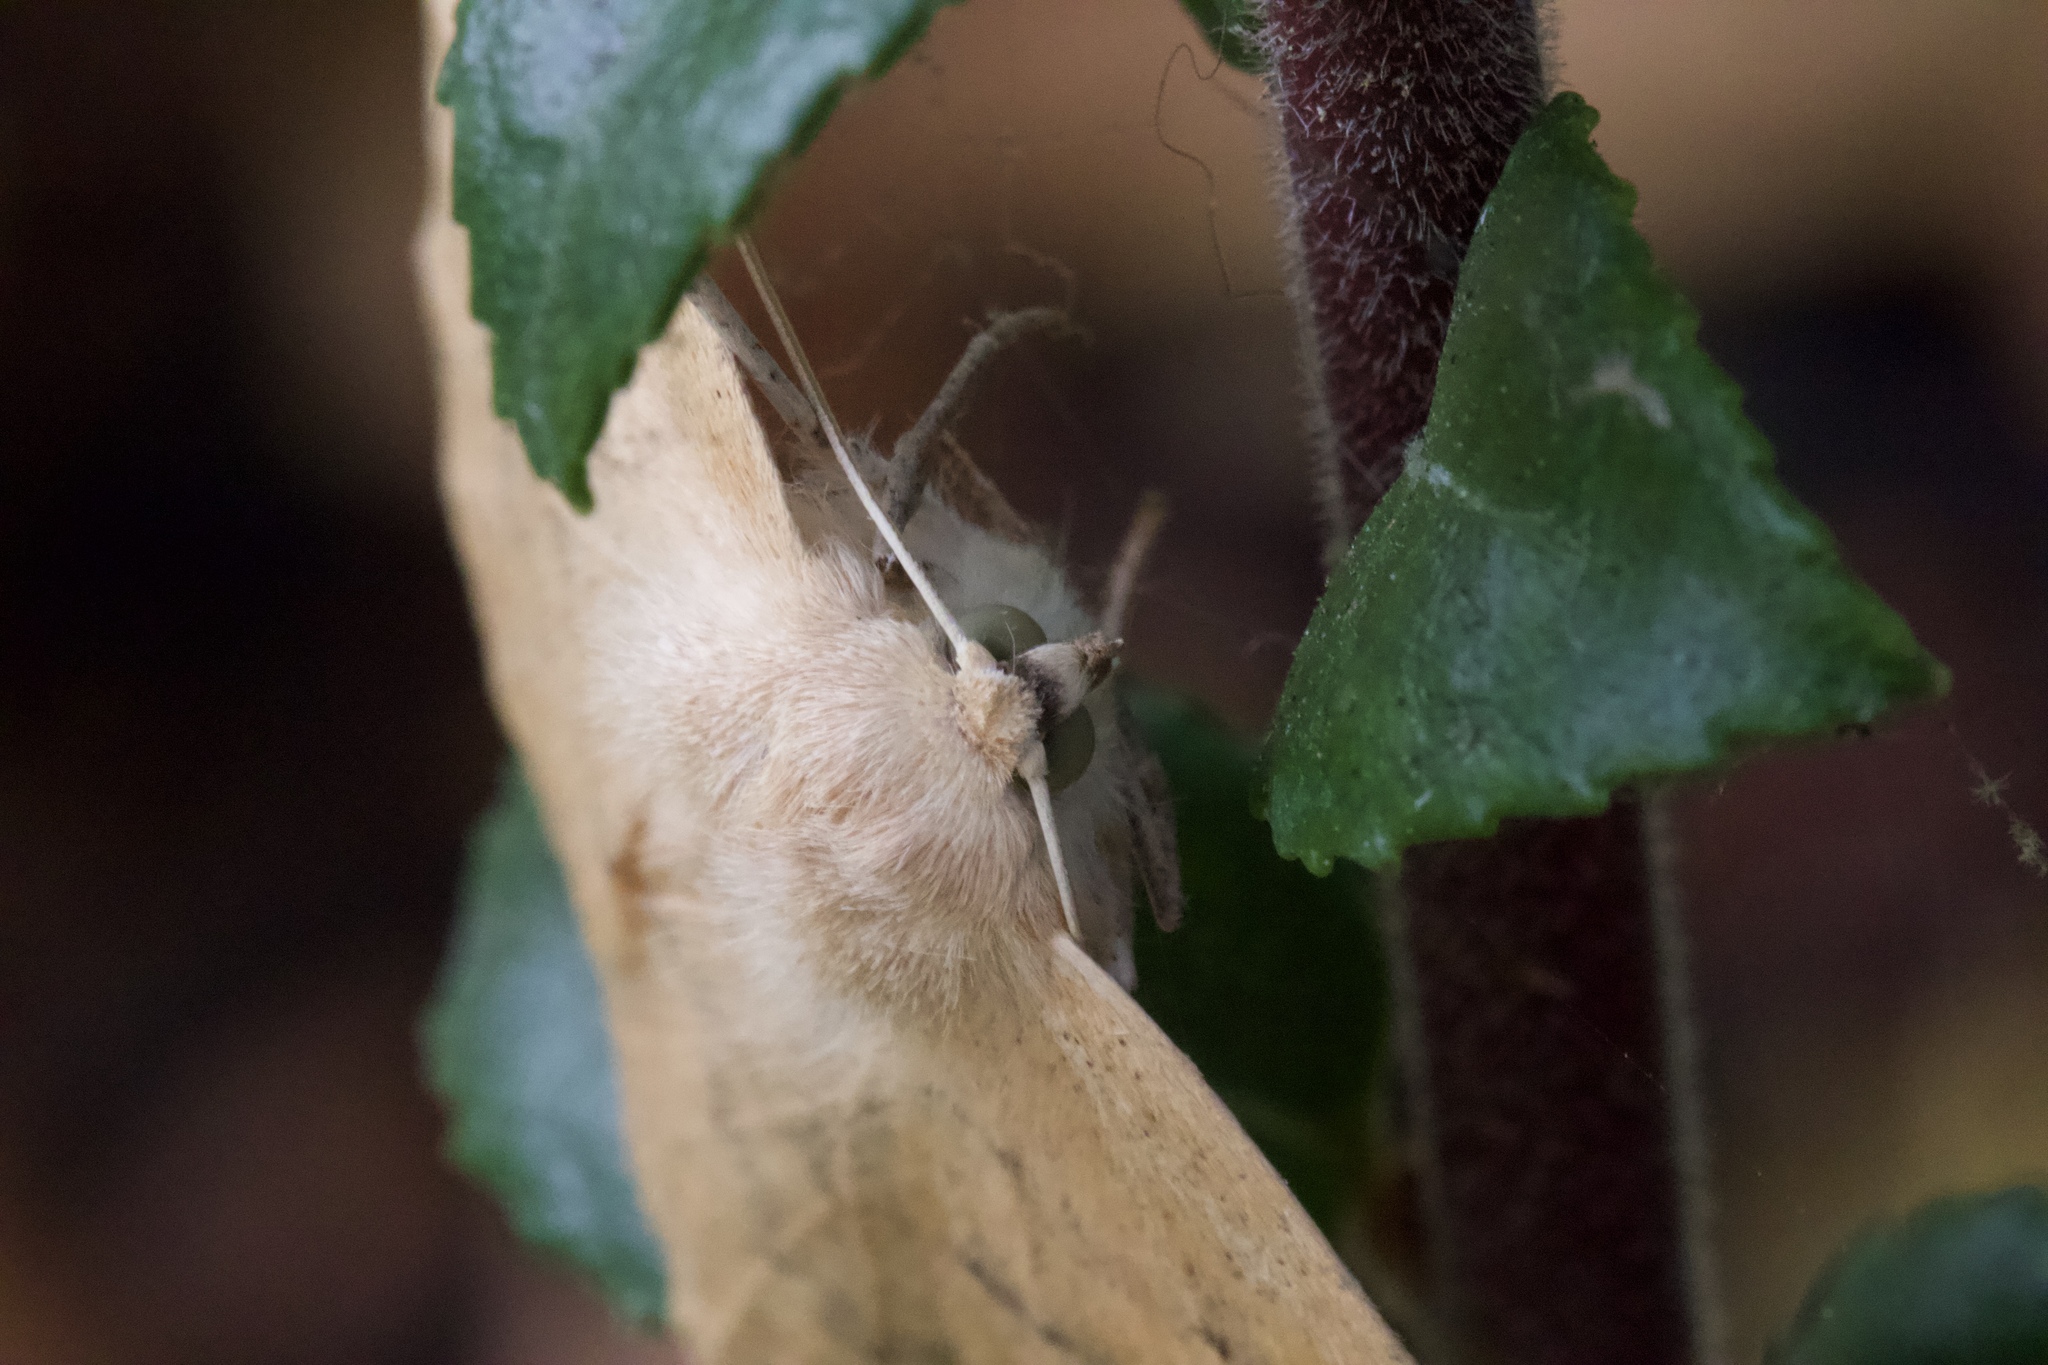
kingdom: Animalia
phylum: Arthropoda
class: Insecta
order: Lepidoptera
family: Geometridae
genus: Sabulodes
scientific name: Sabulodes aegrotata
